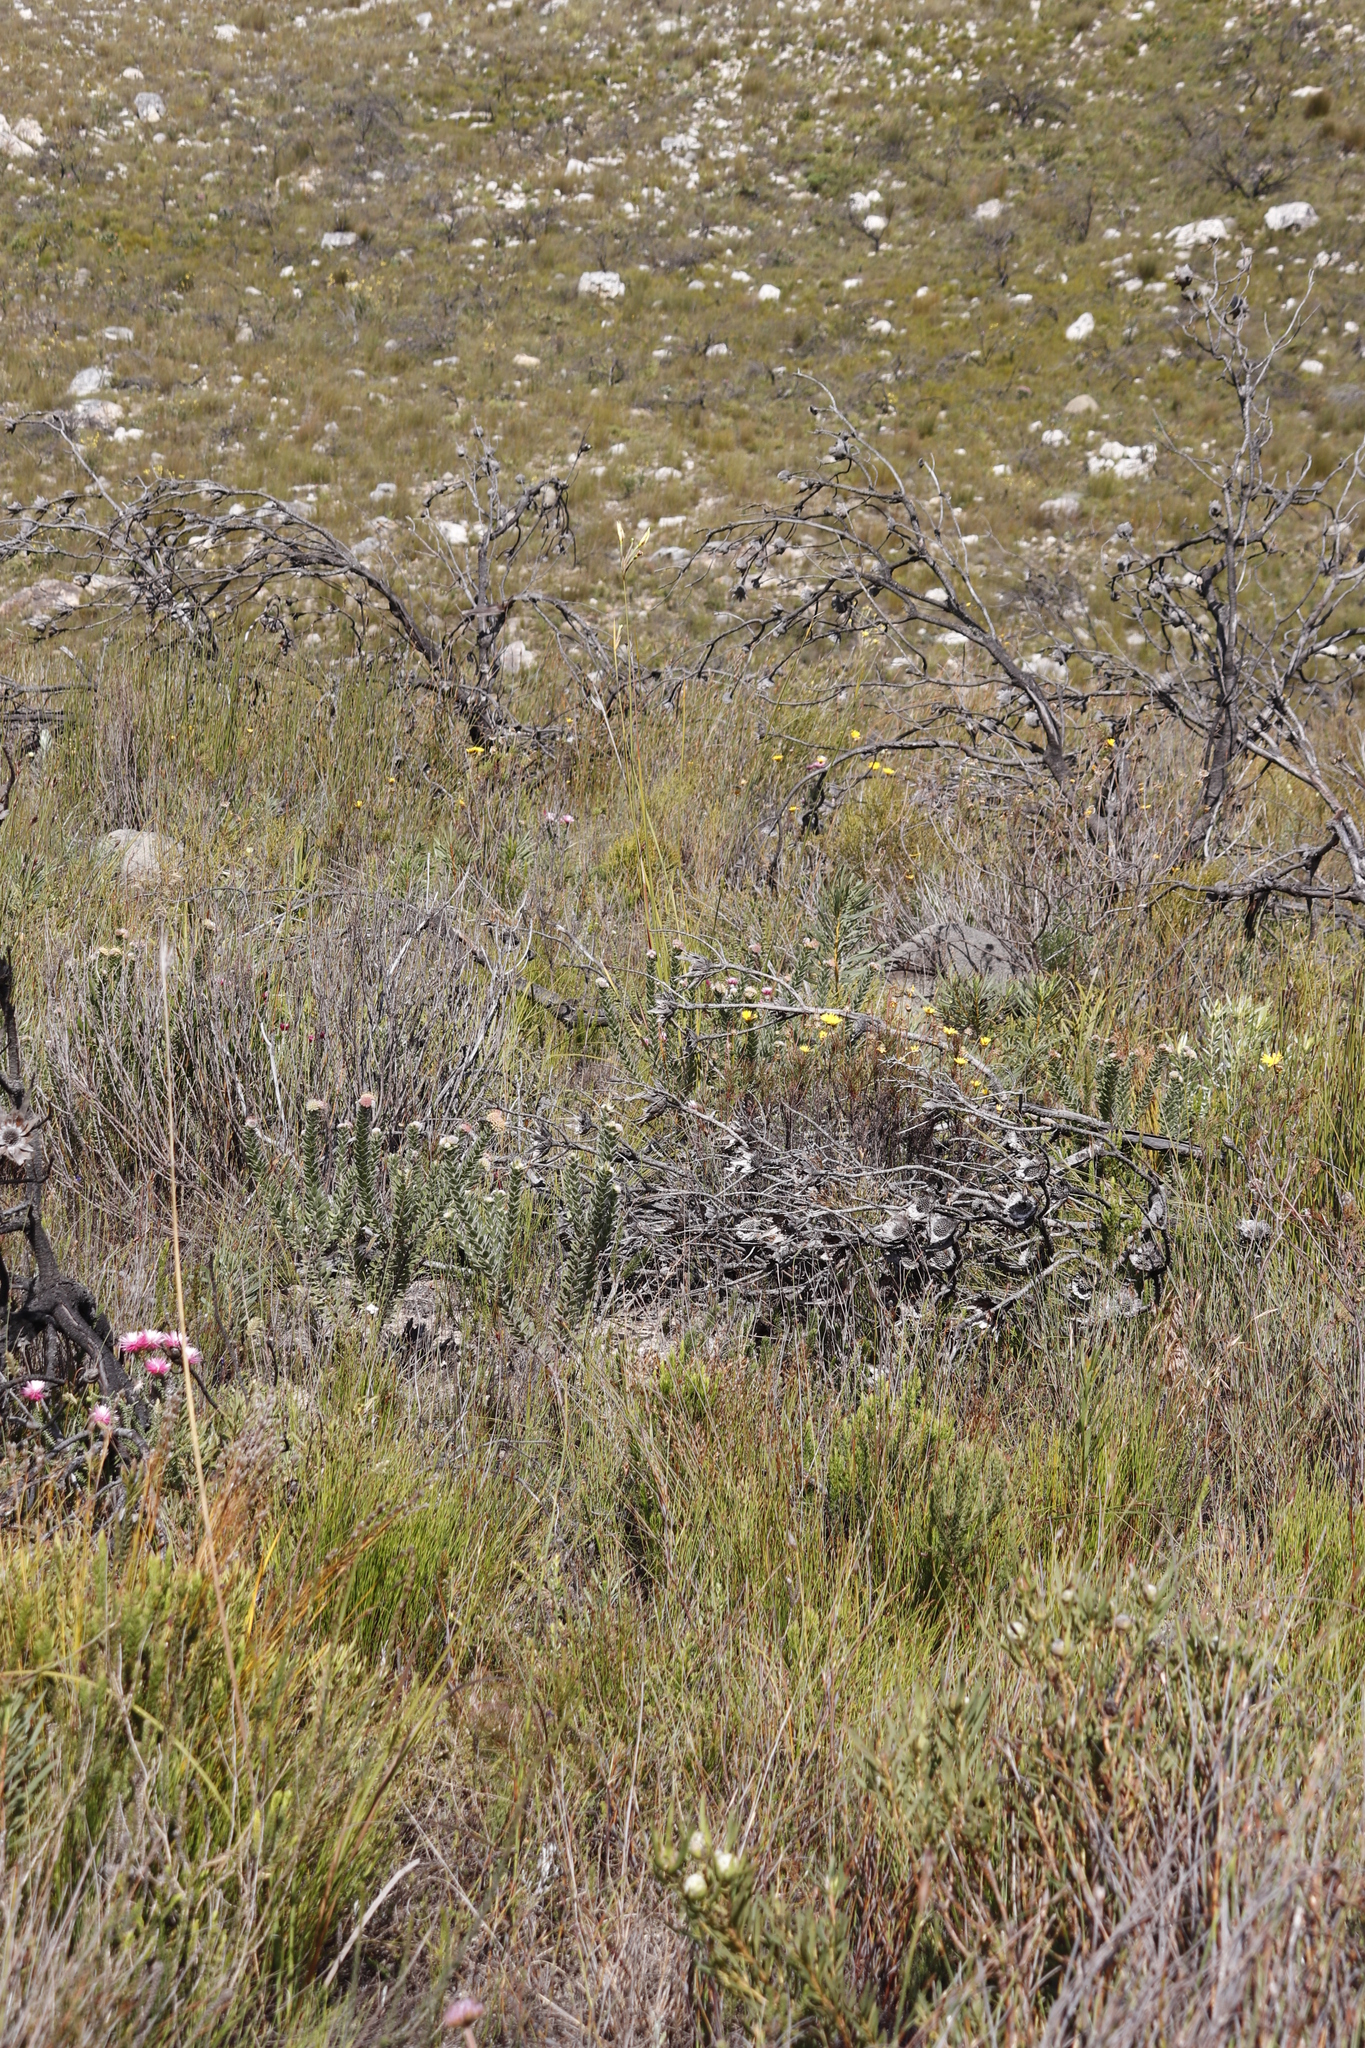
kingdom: Plantae
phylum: Tracheophyta
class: Magnoliopsida
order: Proteales
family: Proteaceae
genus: Protea
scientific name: Protea repens
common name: Sugarbush
